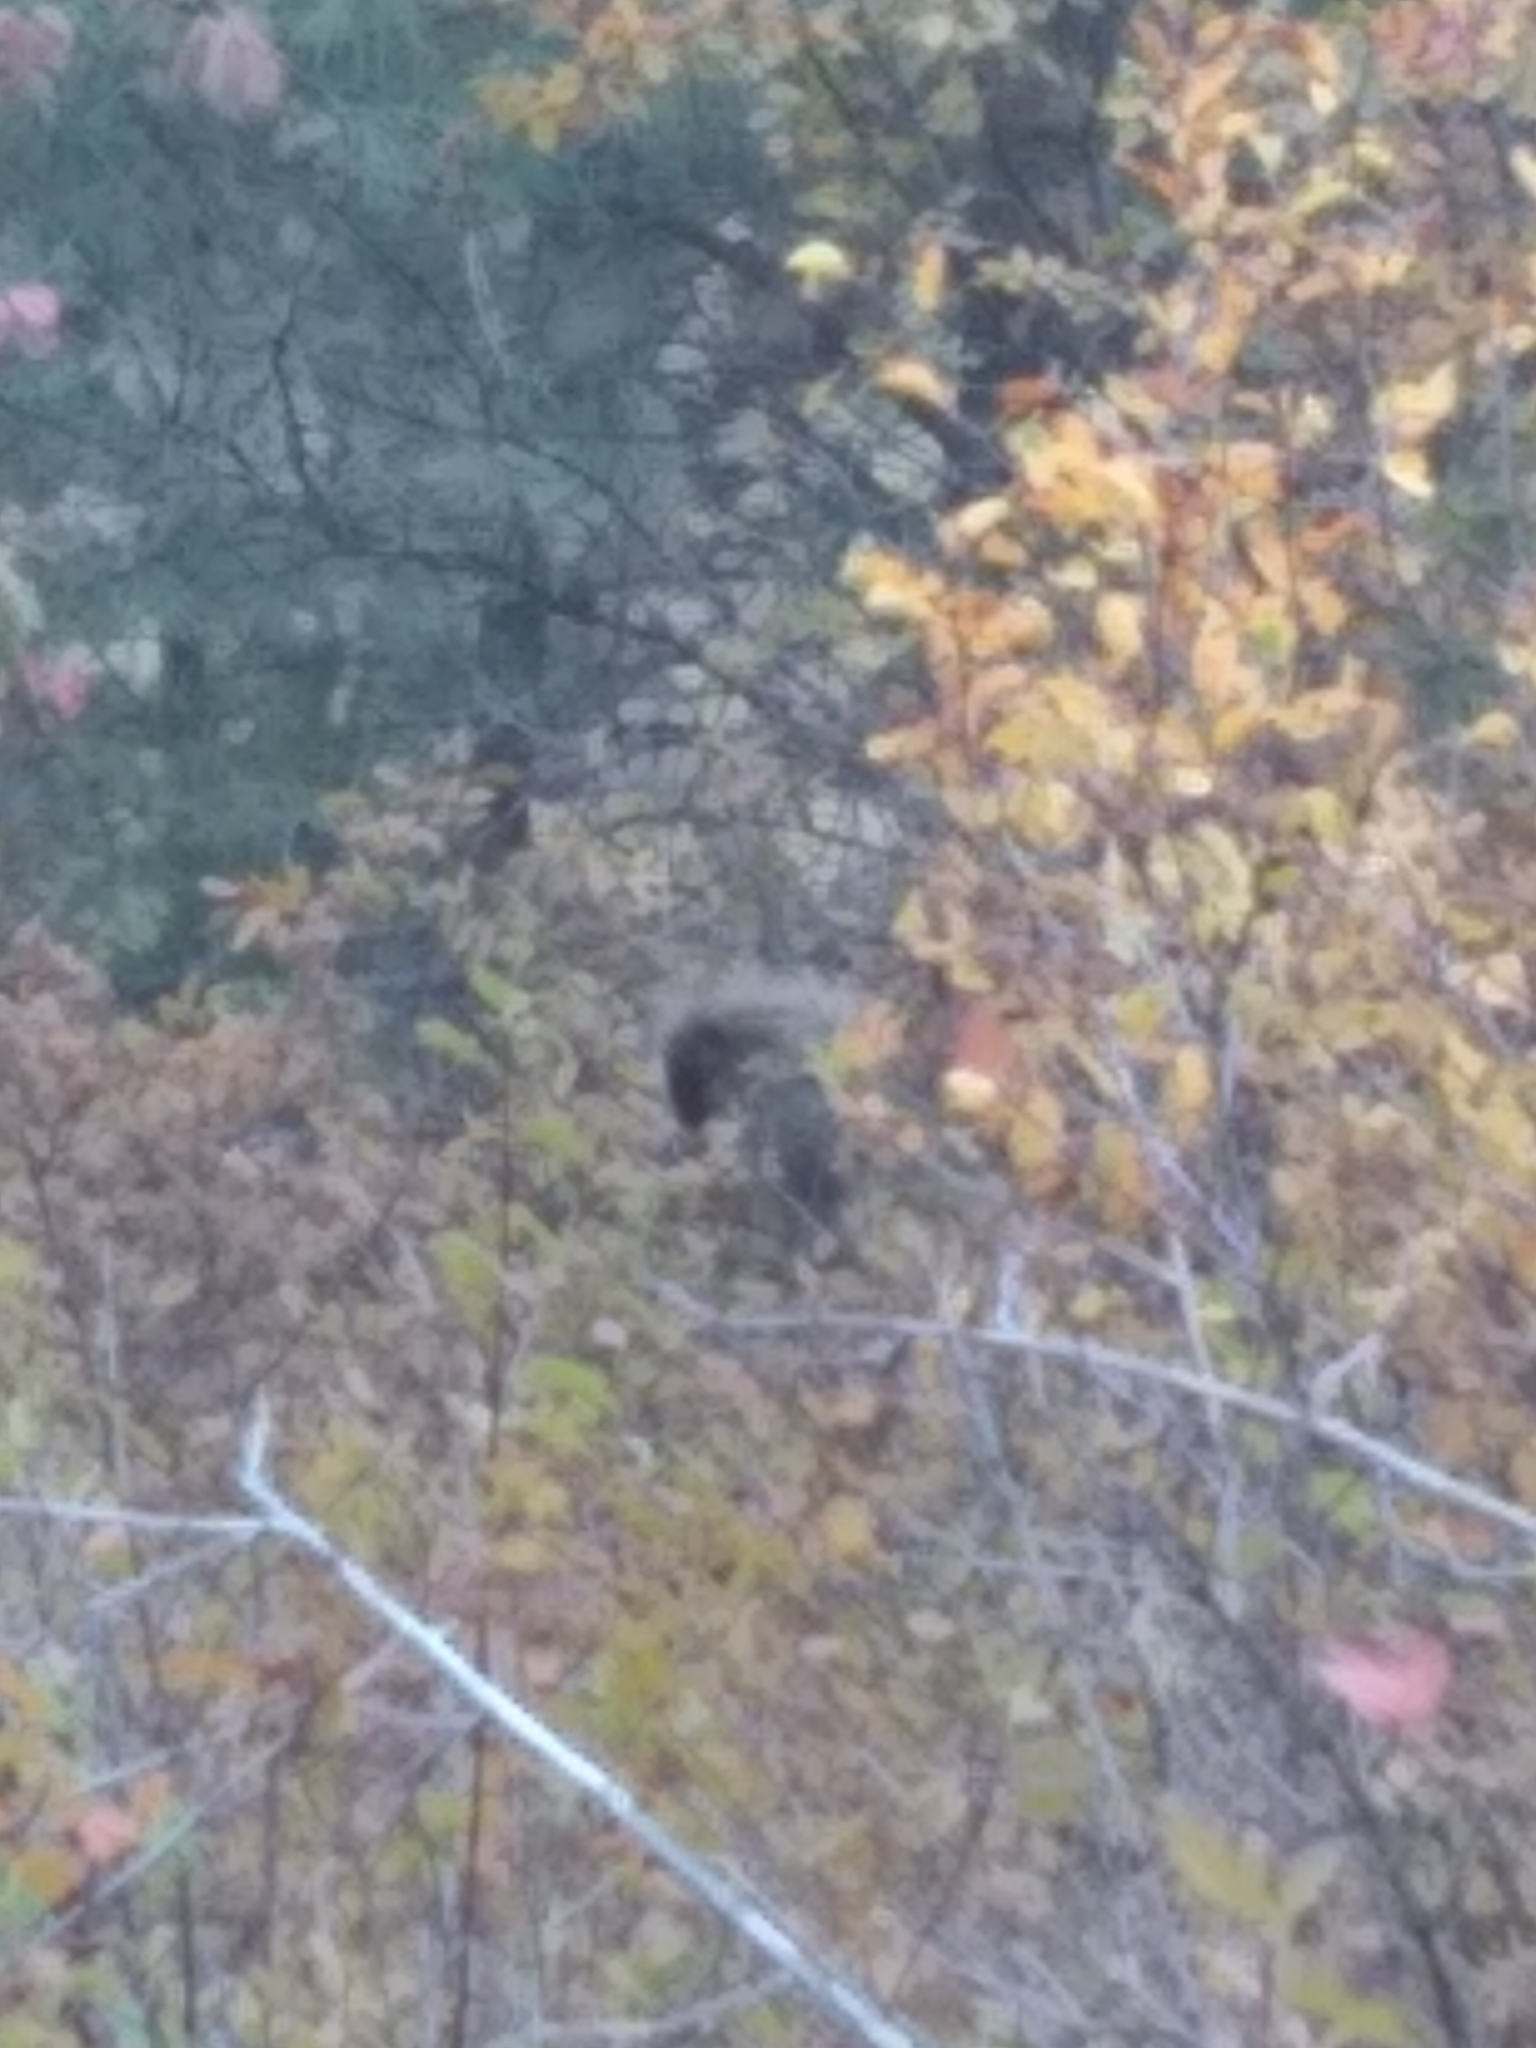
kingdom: Animalia
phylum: Chordata
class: Mammalia
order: Rodentia
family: Erethizontidae
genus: Erethizon
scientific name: Erethizon dorsatus
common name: North american porcupine
